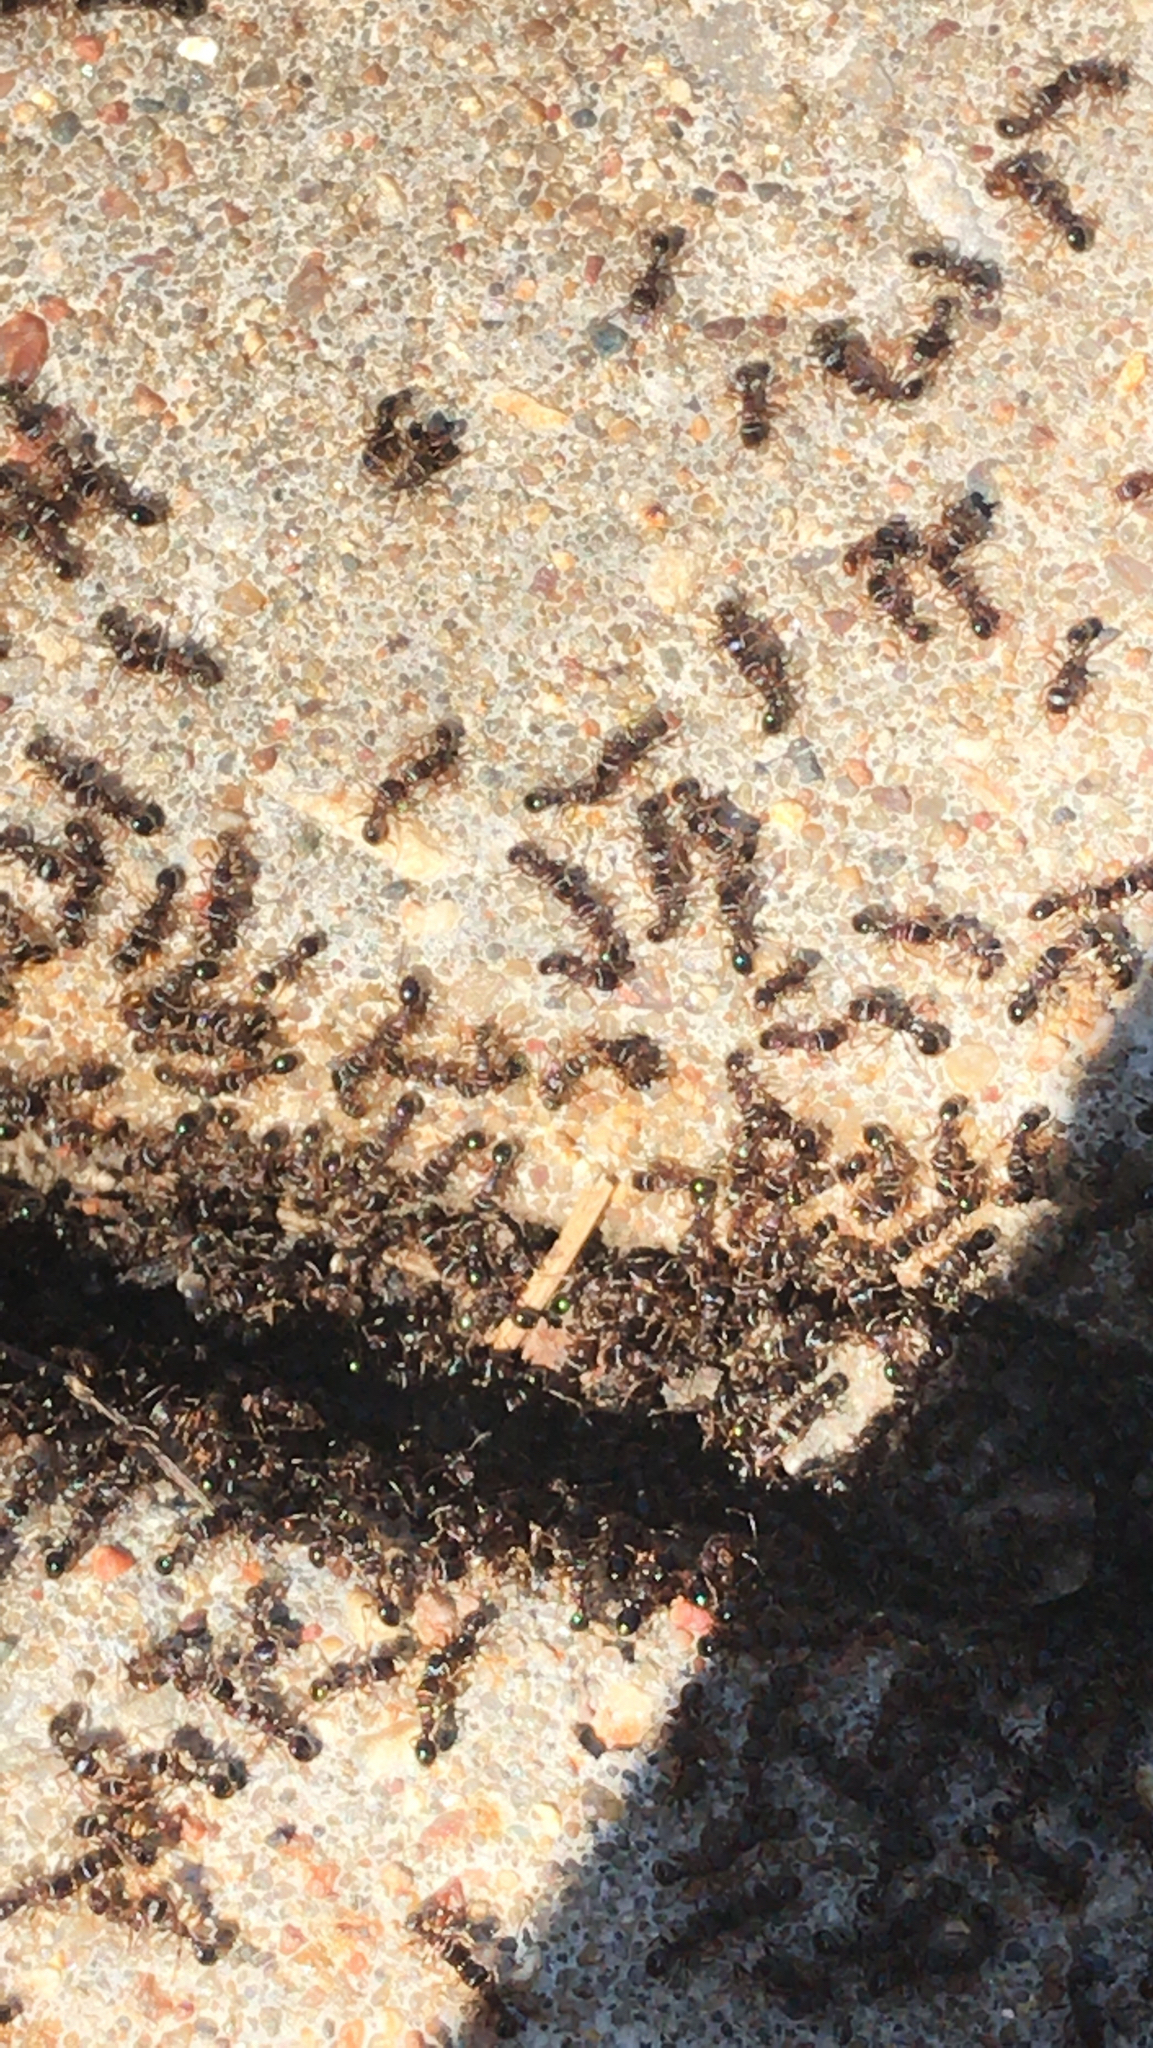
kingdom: Animalia
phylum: Arthropoda
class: Insecta
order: Hymenoptera
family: Formicidae
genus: Tetramorium
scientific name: Tetramorium immigrans
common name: Pavement ant
